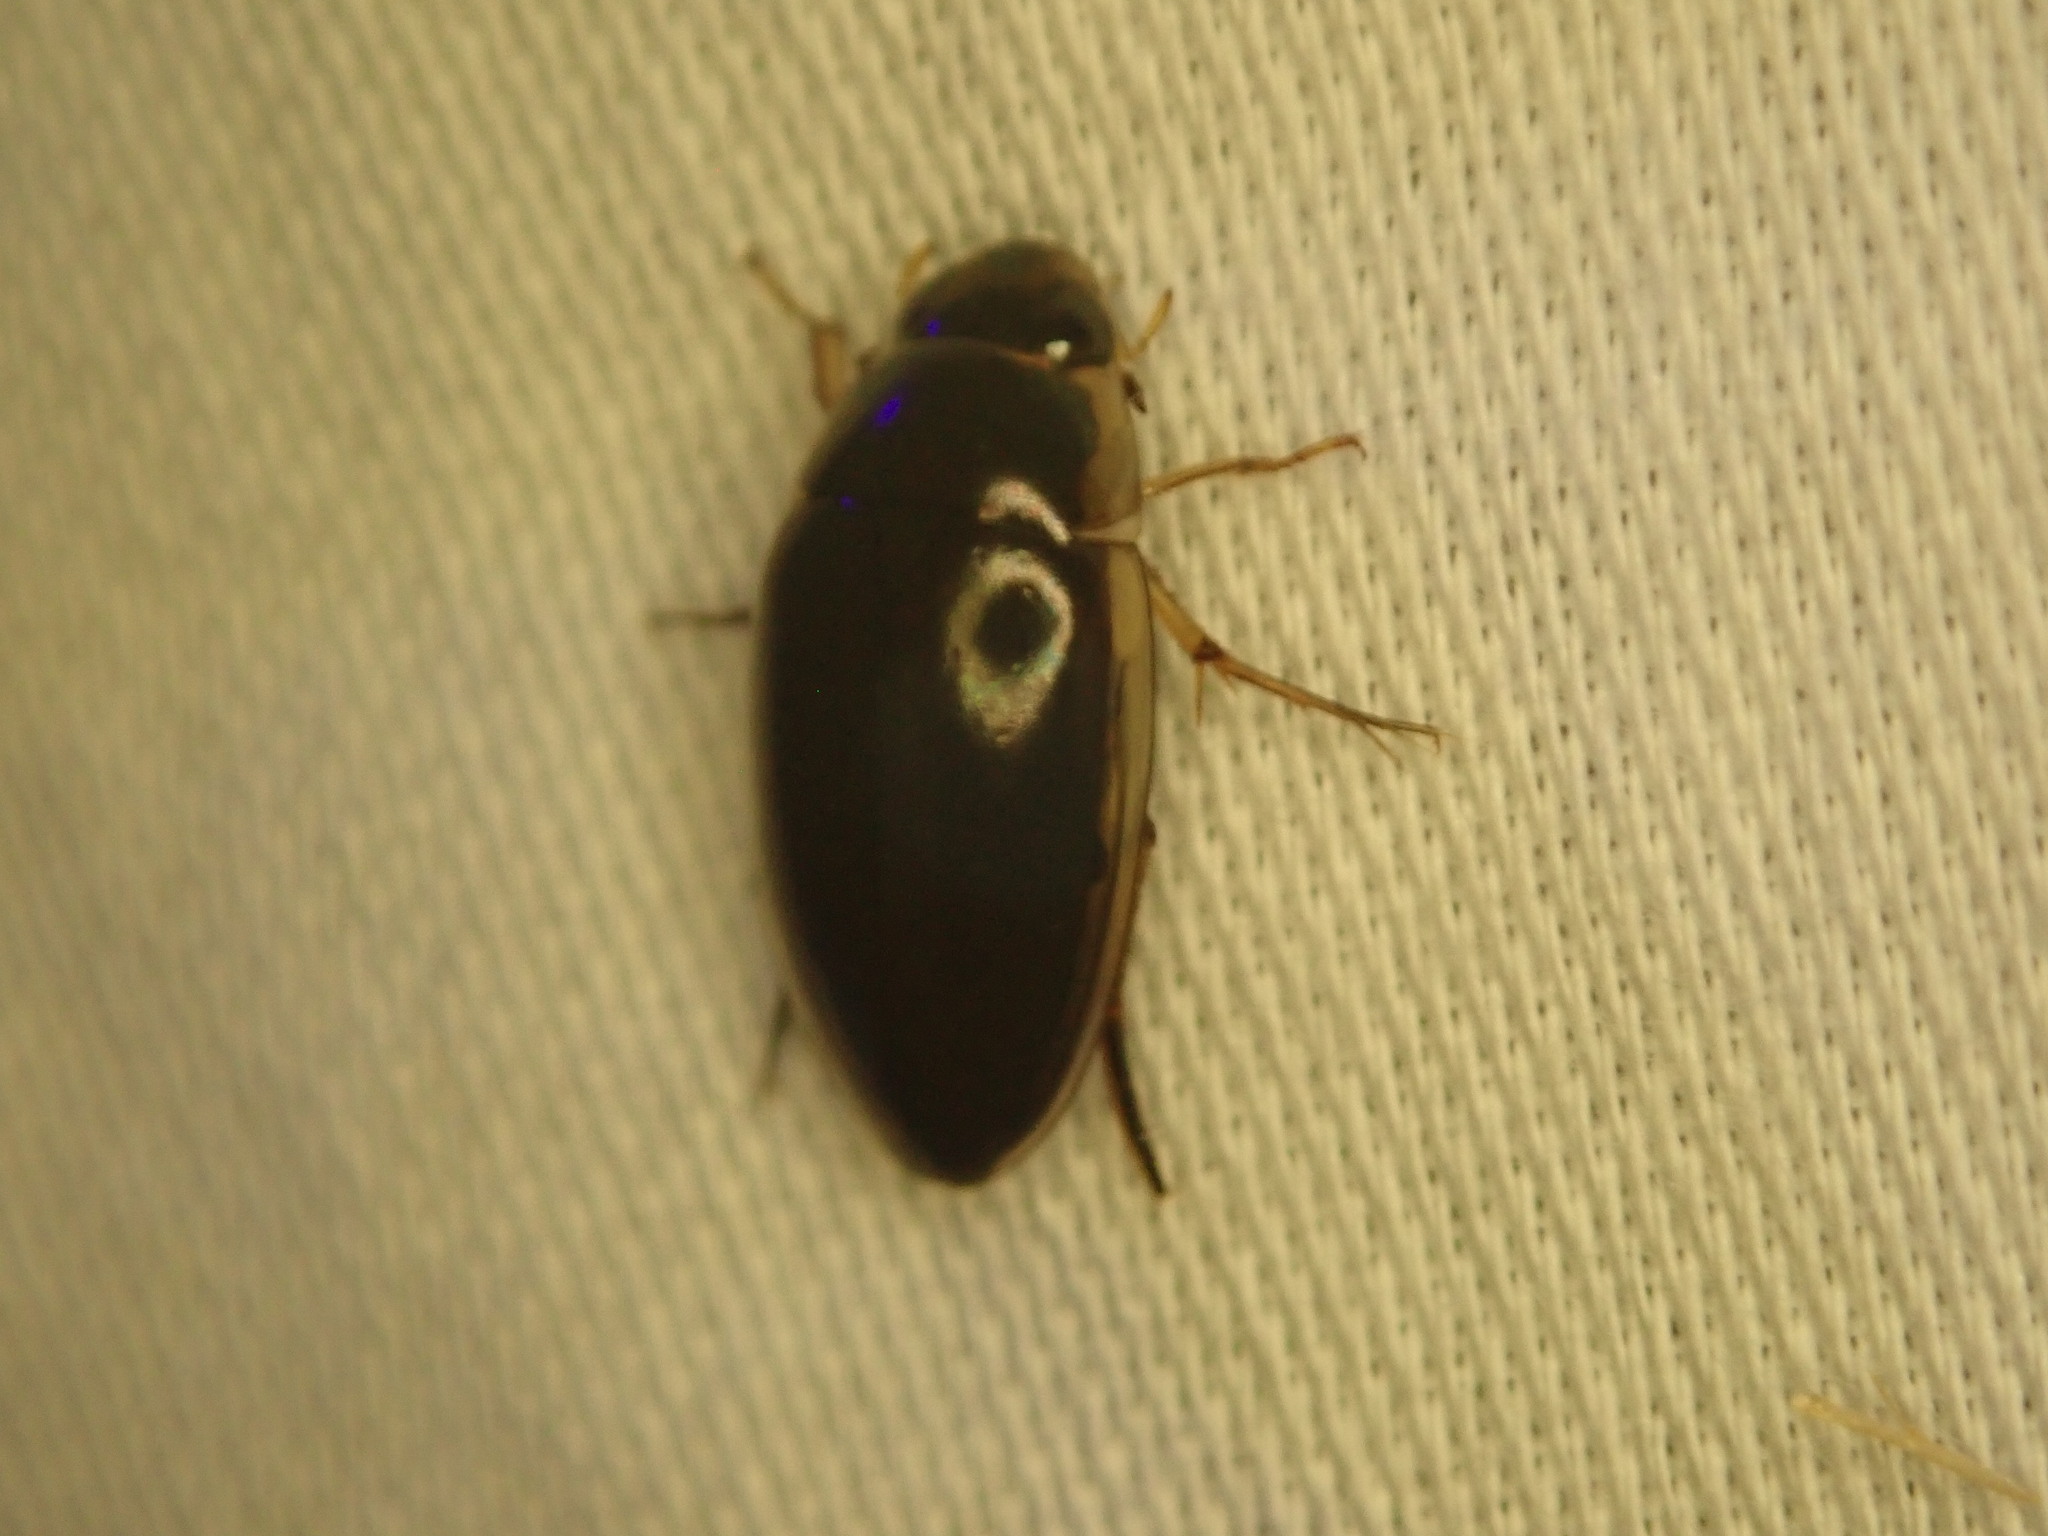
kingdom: Animalia
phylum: Arthropoda
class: Insecta
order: Coleoptera
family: Hydrophilidae
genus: Tropisternus
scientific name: Tropisternus lateralis
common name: Lateral-banded water scavenger beetle
